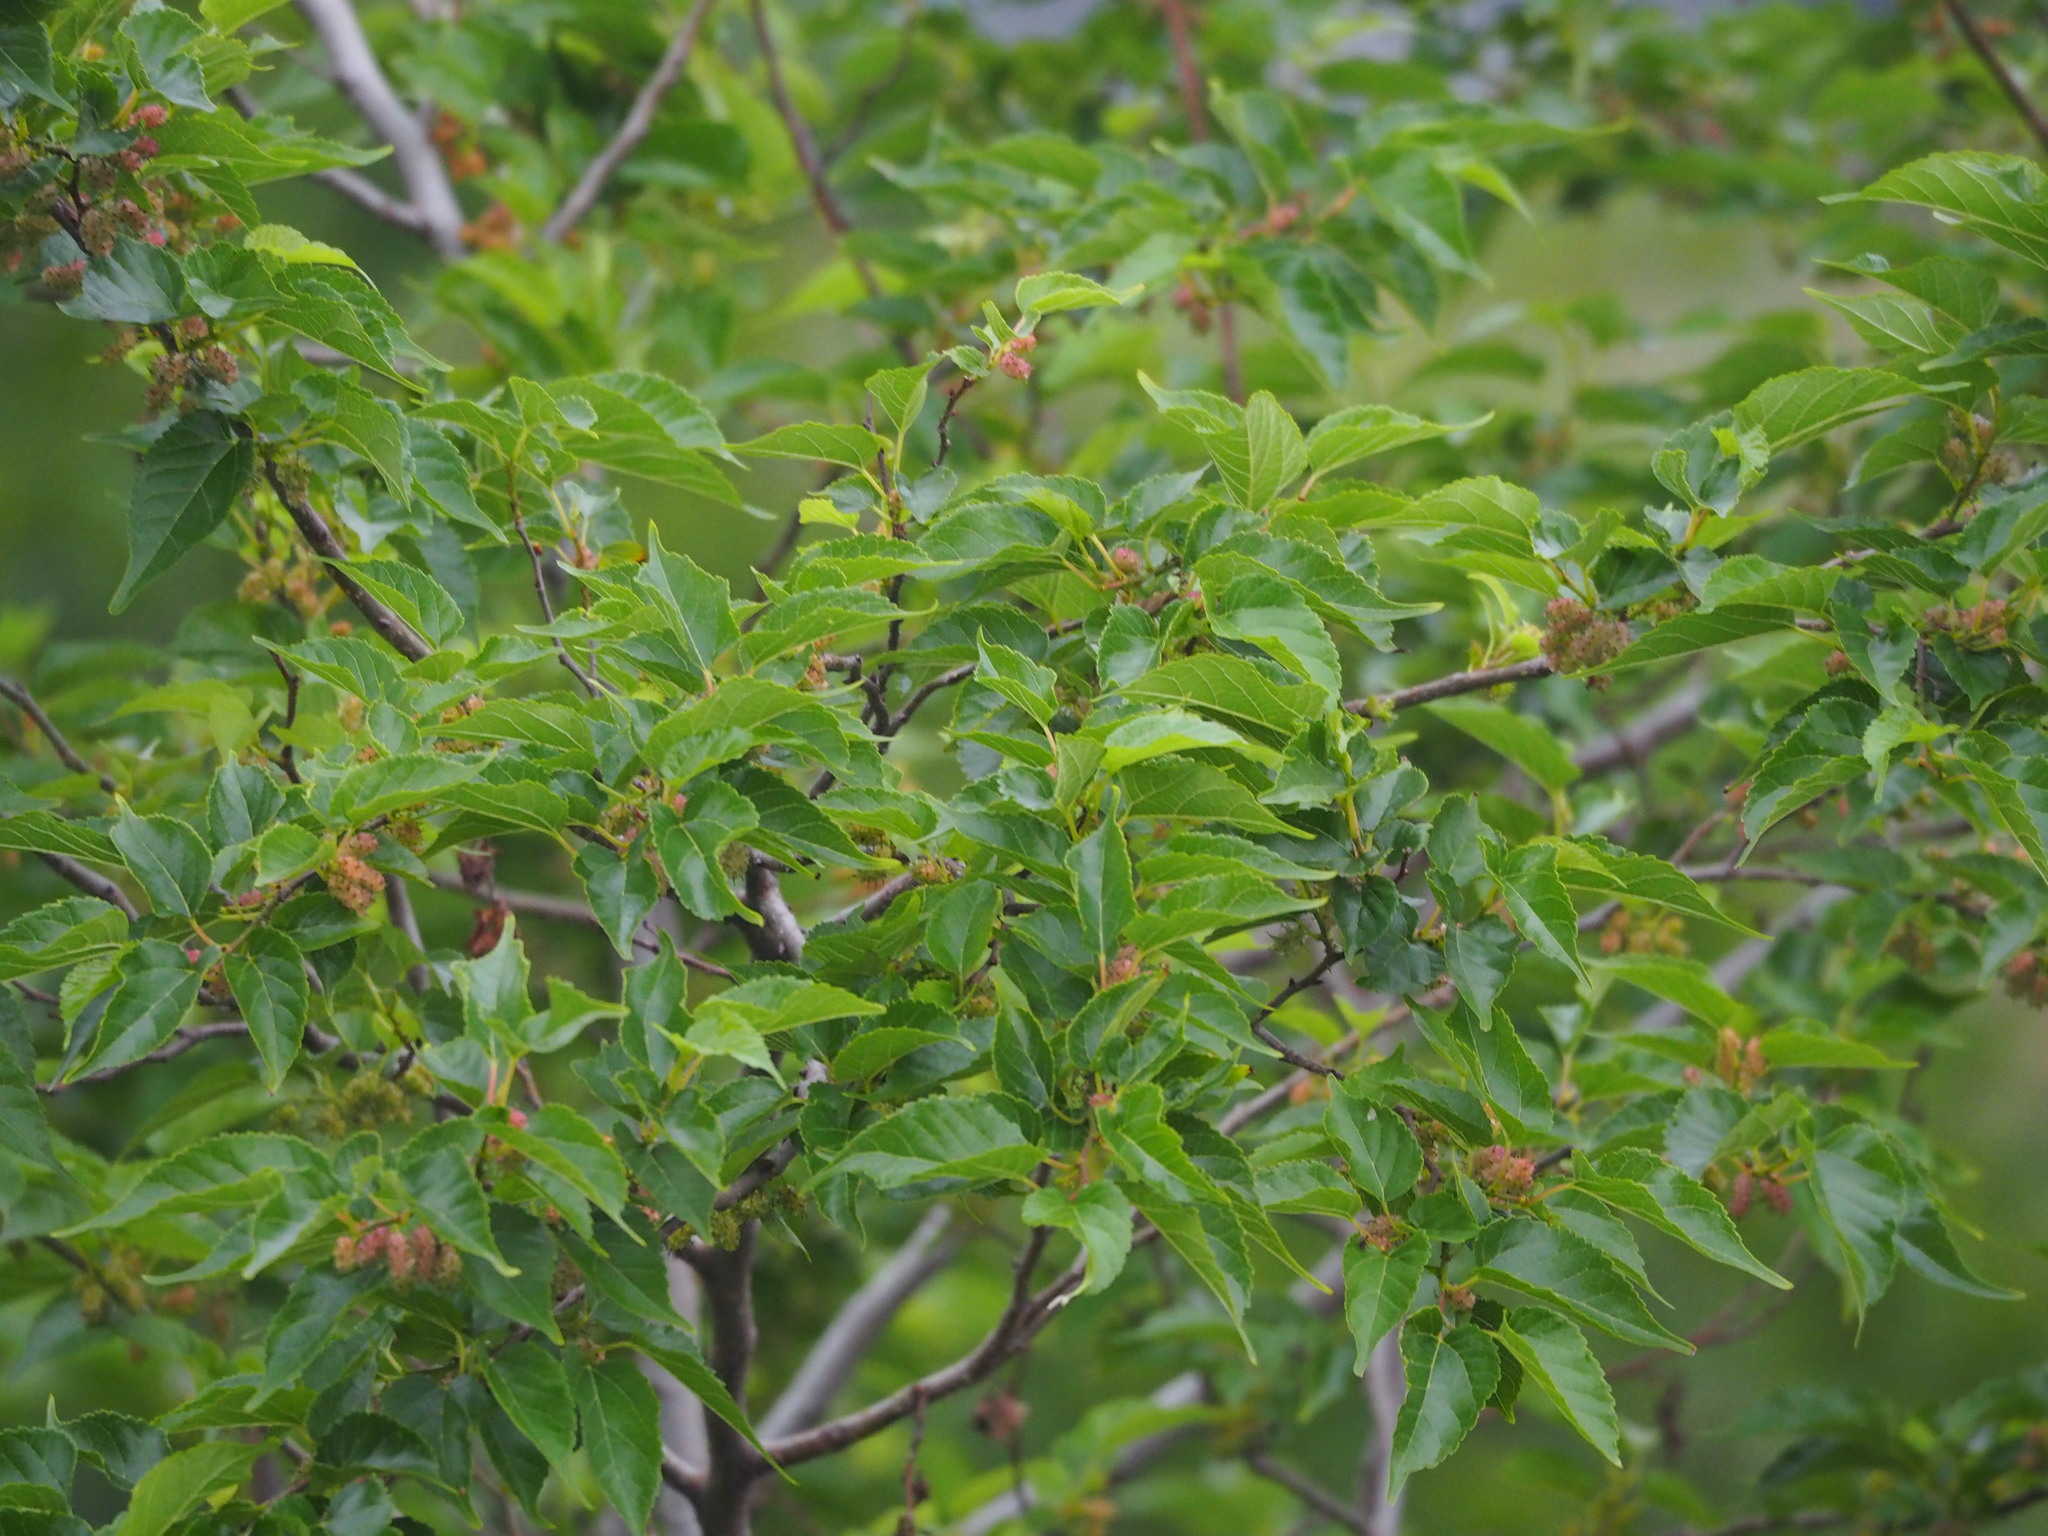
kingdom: Plantae
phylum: Tracheophyta
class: Magnoliopsida
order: Rosales
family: Moraceae
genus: Morus
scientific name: Morus indica
